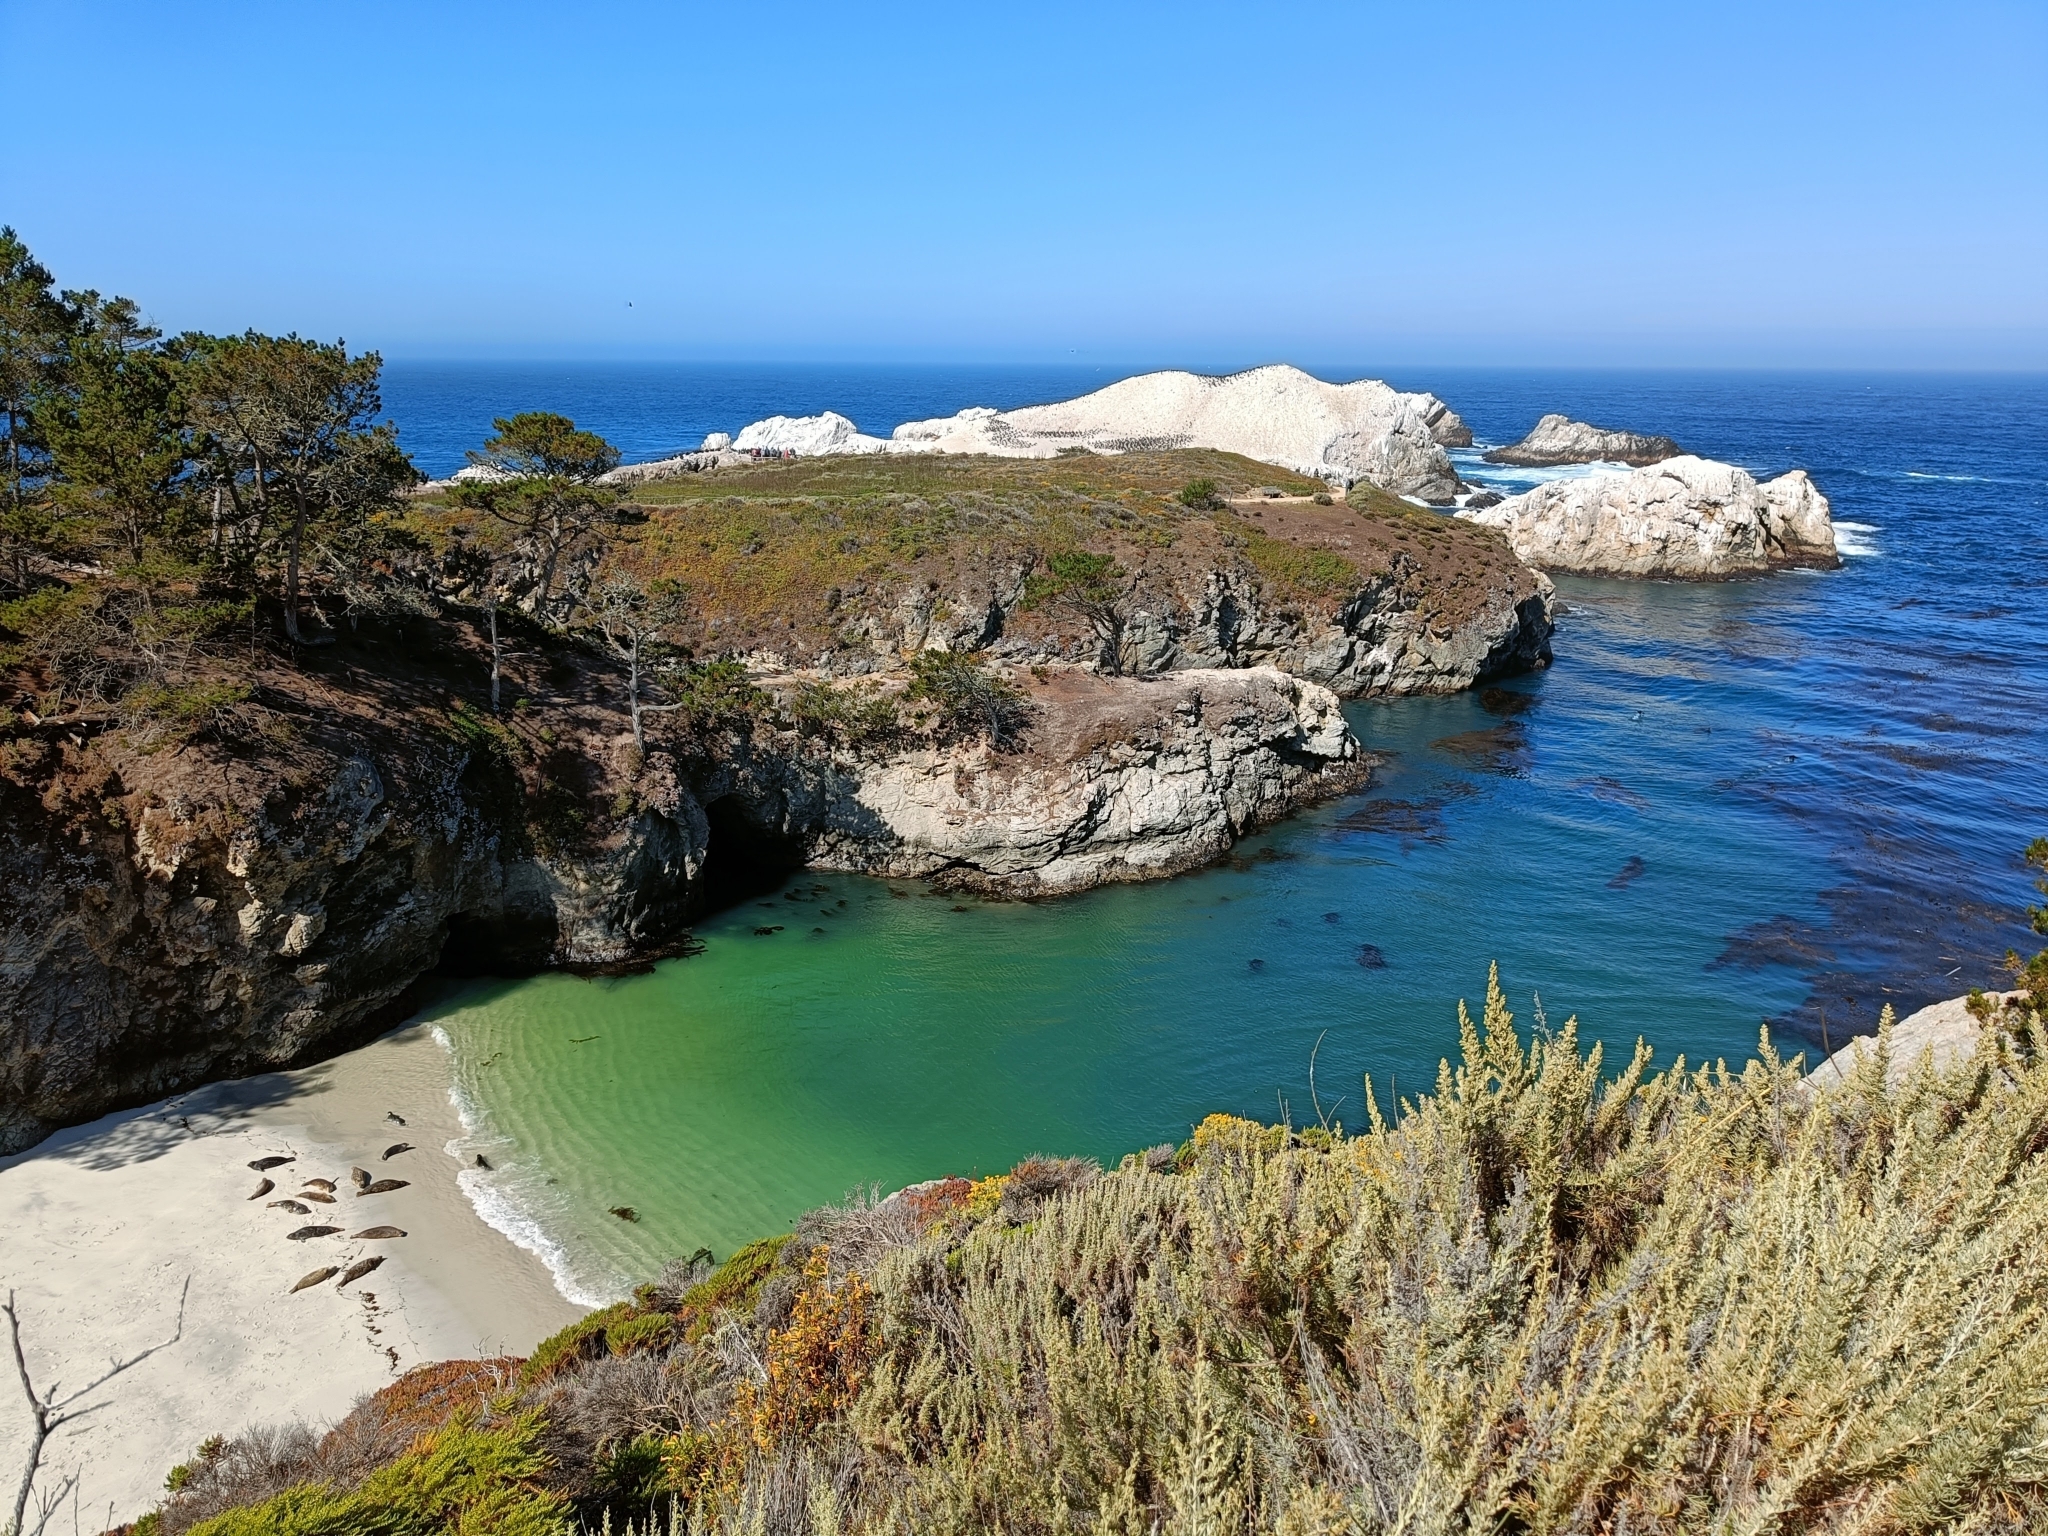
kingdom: Animalia
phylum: Chordata
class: Mammalia
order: Carnivora
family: Phocidae
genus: Phoca
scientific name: Phoca vitulina
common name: Harbor seal
